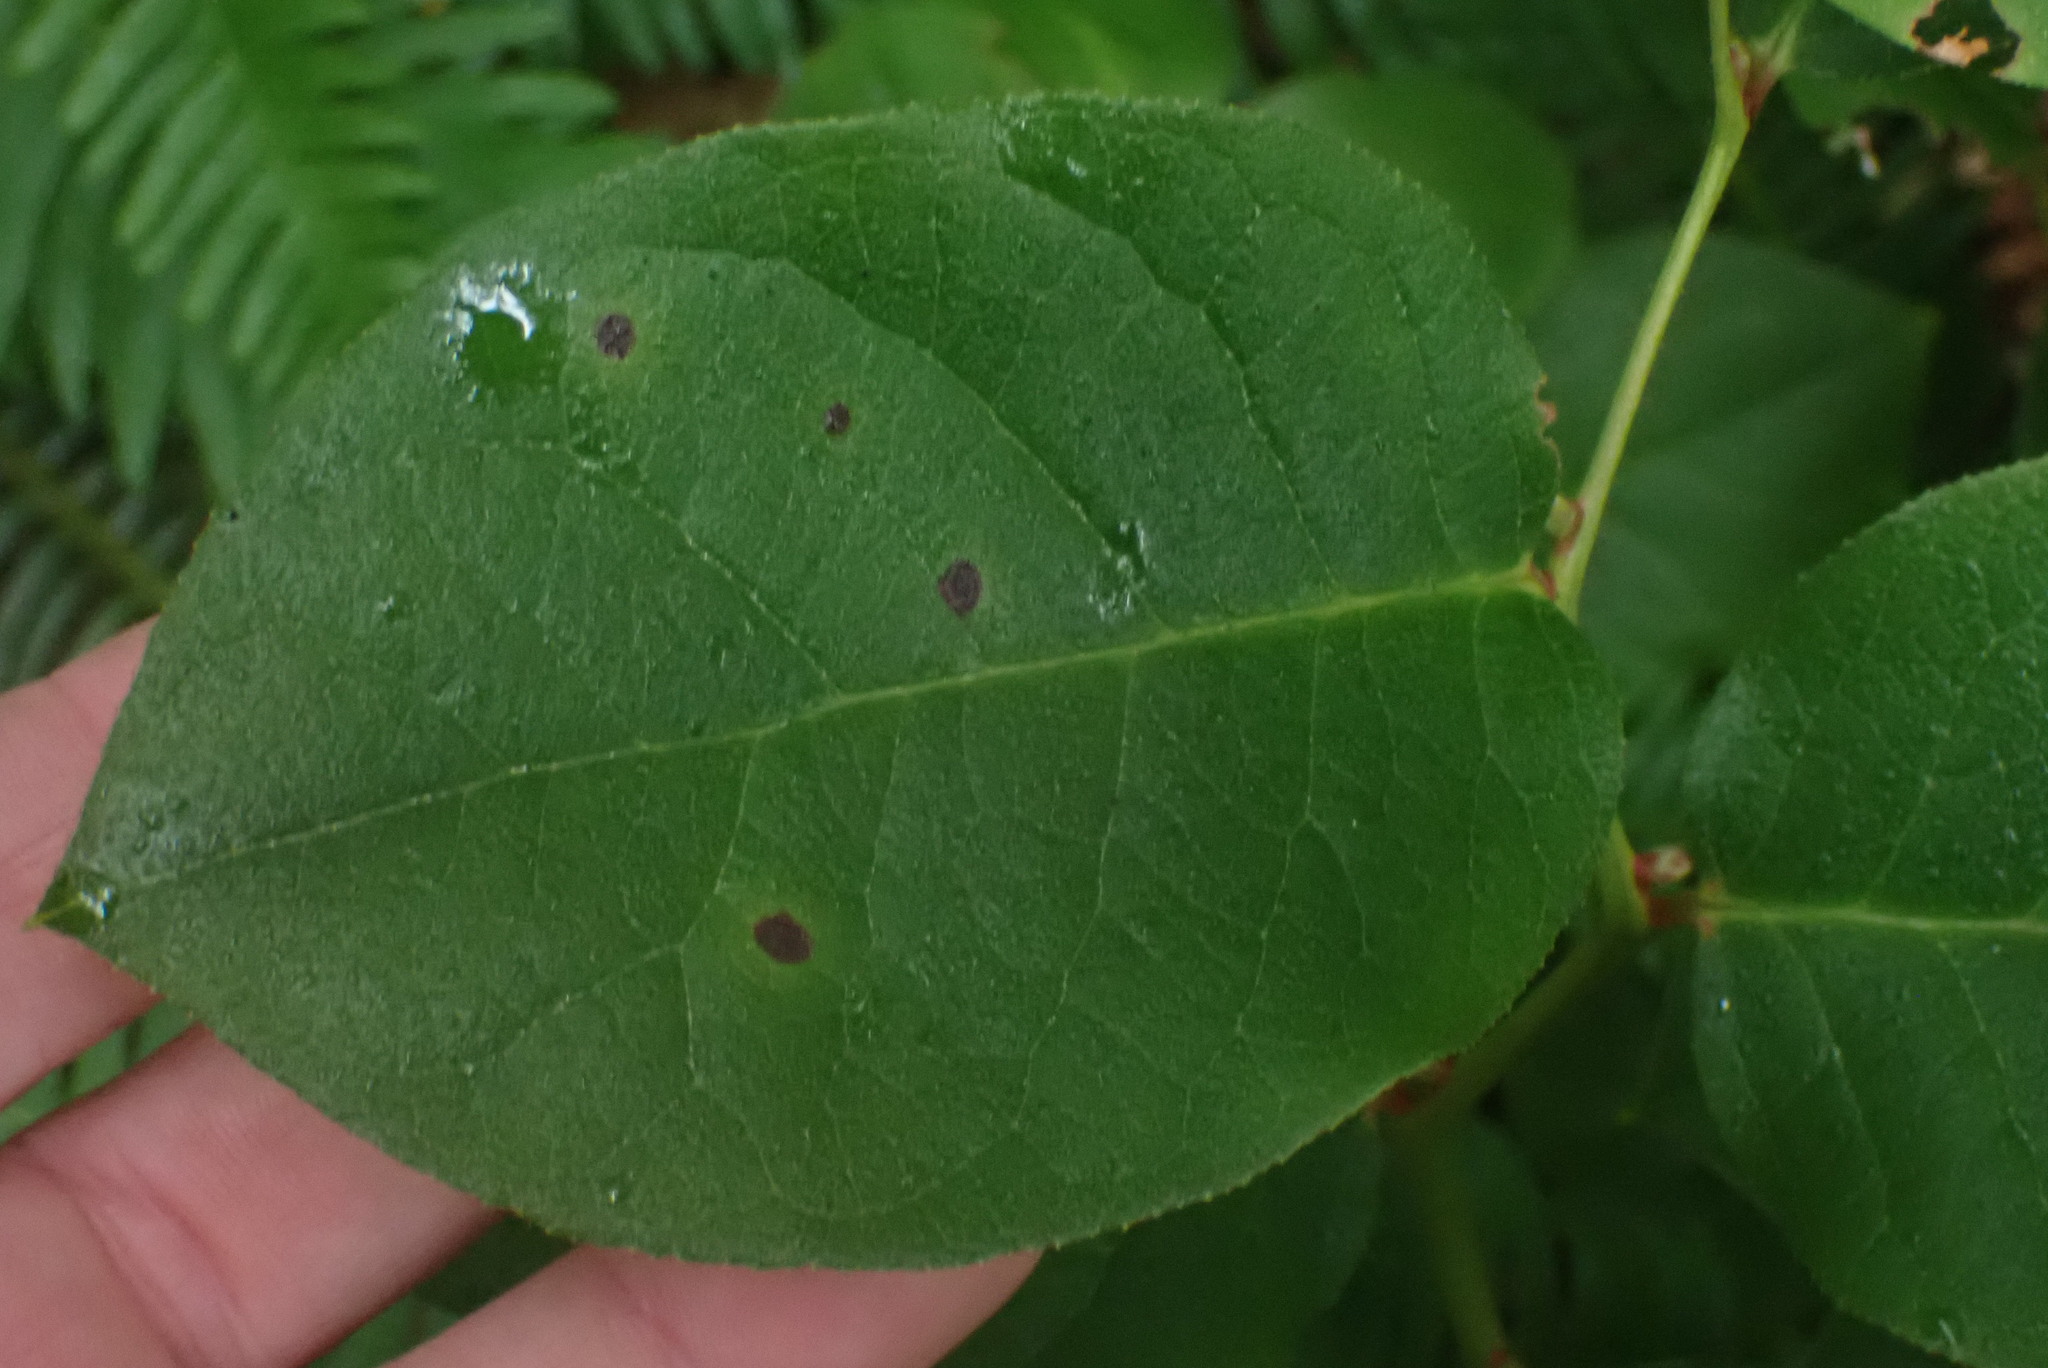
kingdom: Plantae
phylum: Tracheophyta
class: Magnoliopsida
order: Ericales
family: Ericaceae
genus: Gaultheria
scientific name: Gaultheria shallon
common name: Shallon
